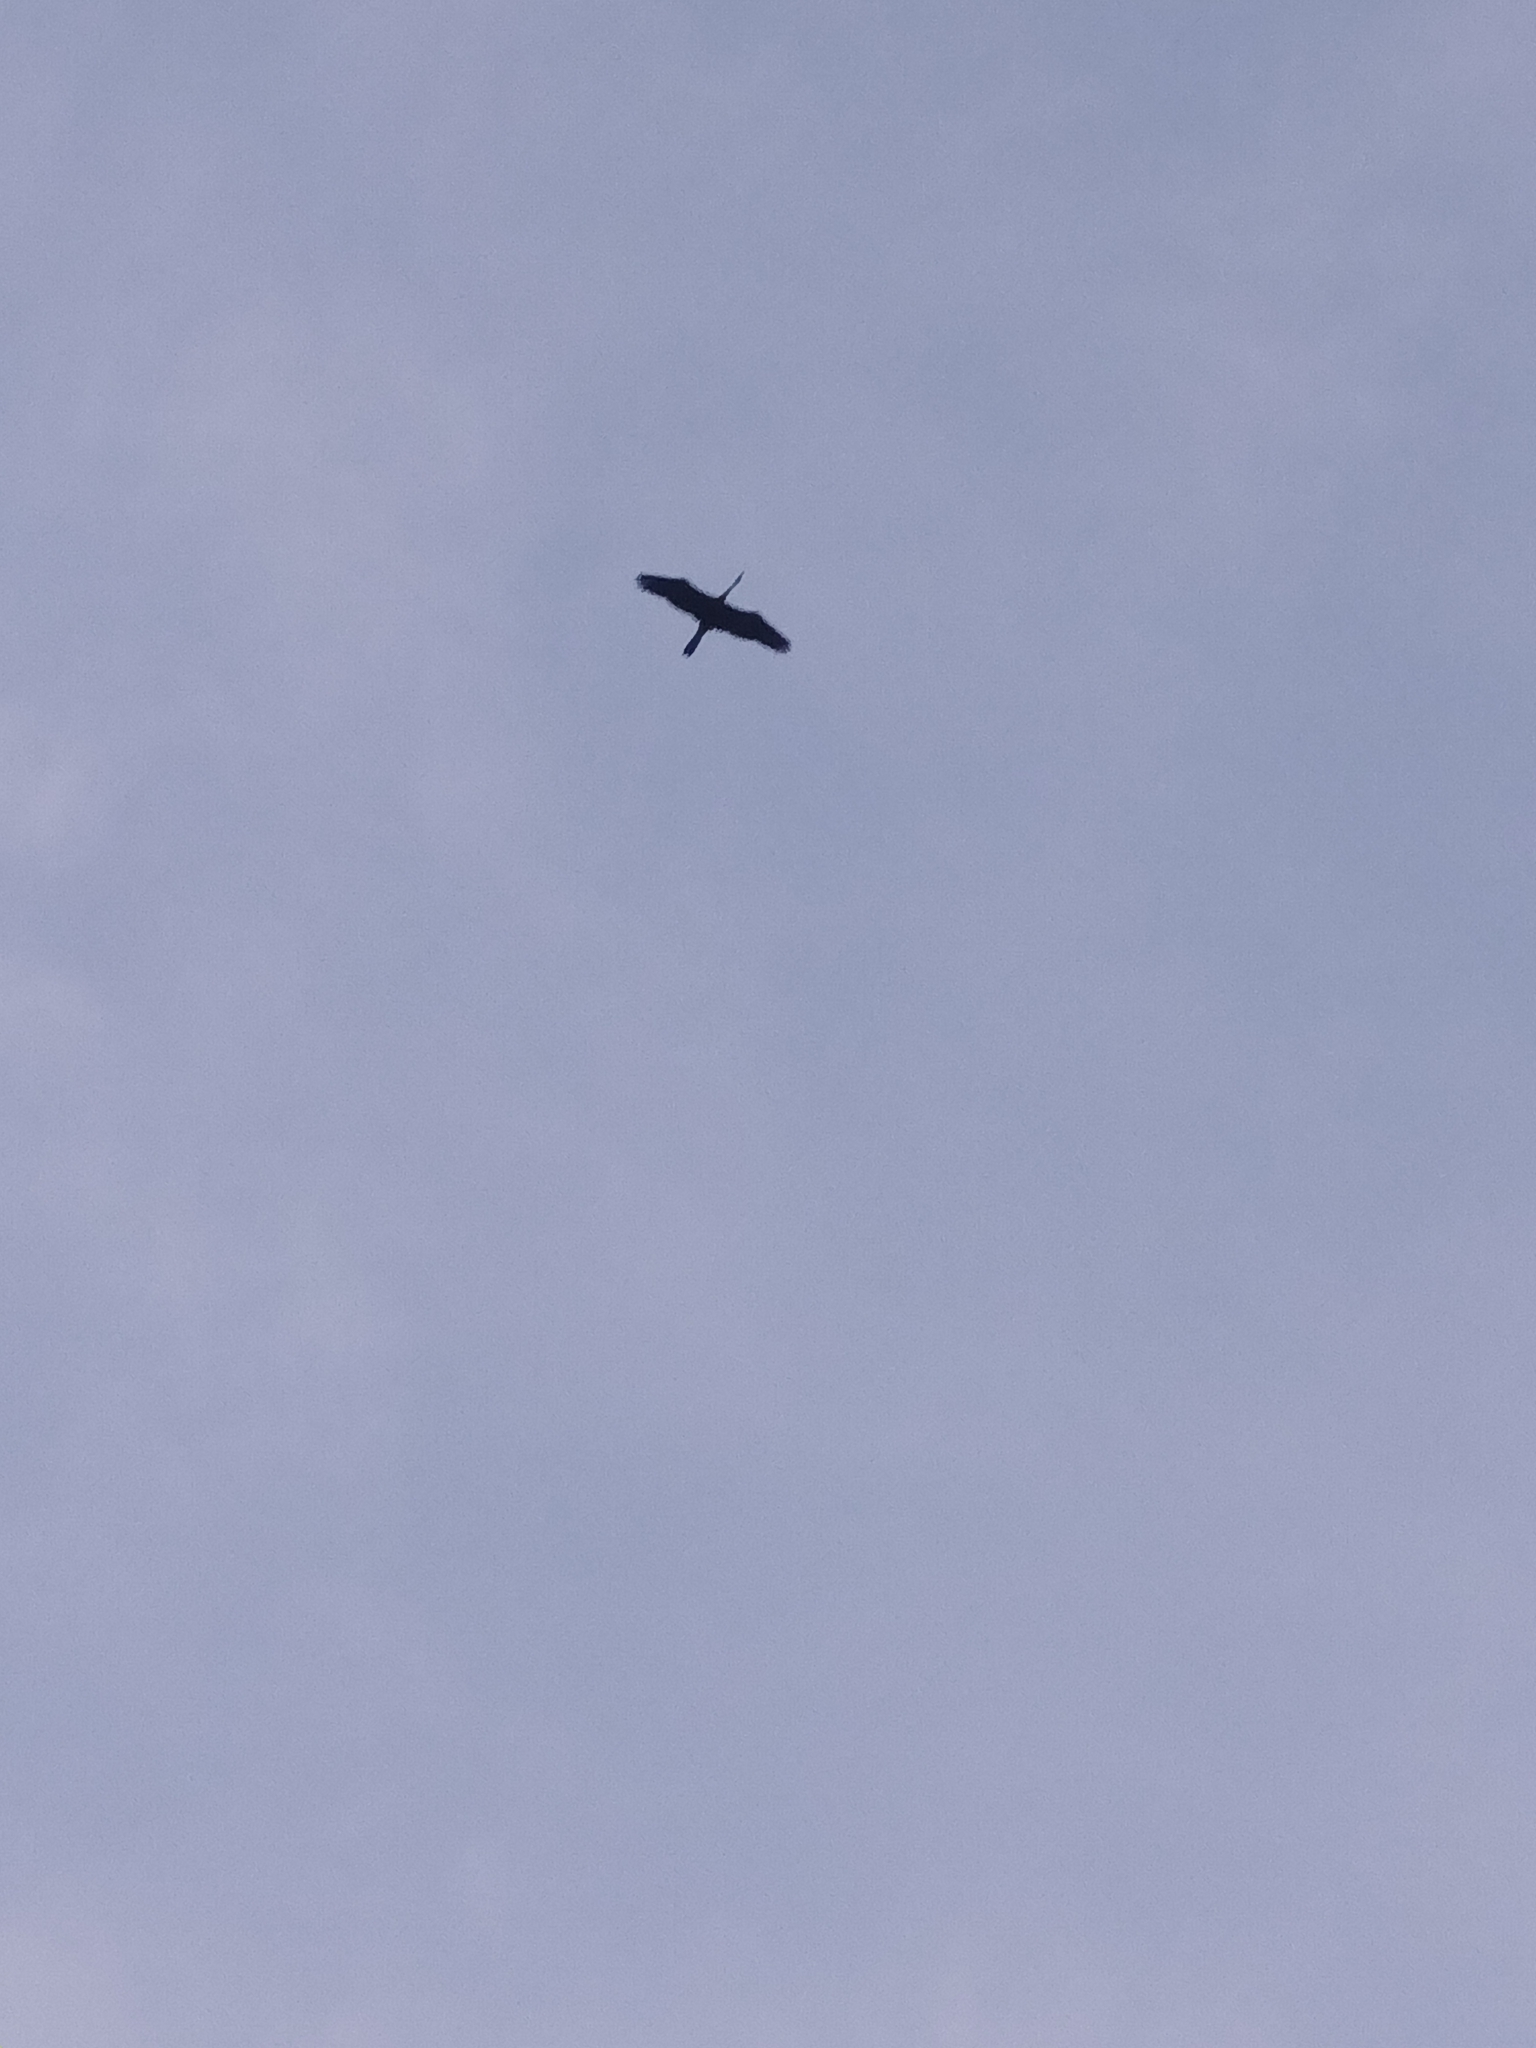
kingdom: Animalia
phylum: Chordata
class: Aves
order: Suliformes
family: Anhingidae
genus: Anhinga
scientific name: Anhinga melanogaster
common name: Oriental darter
